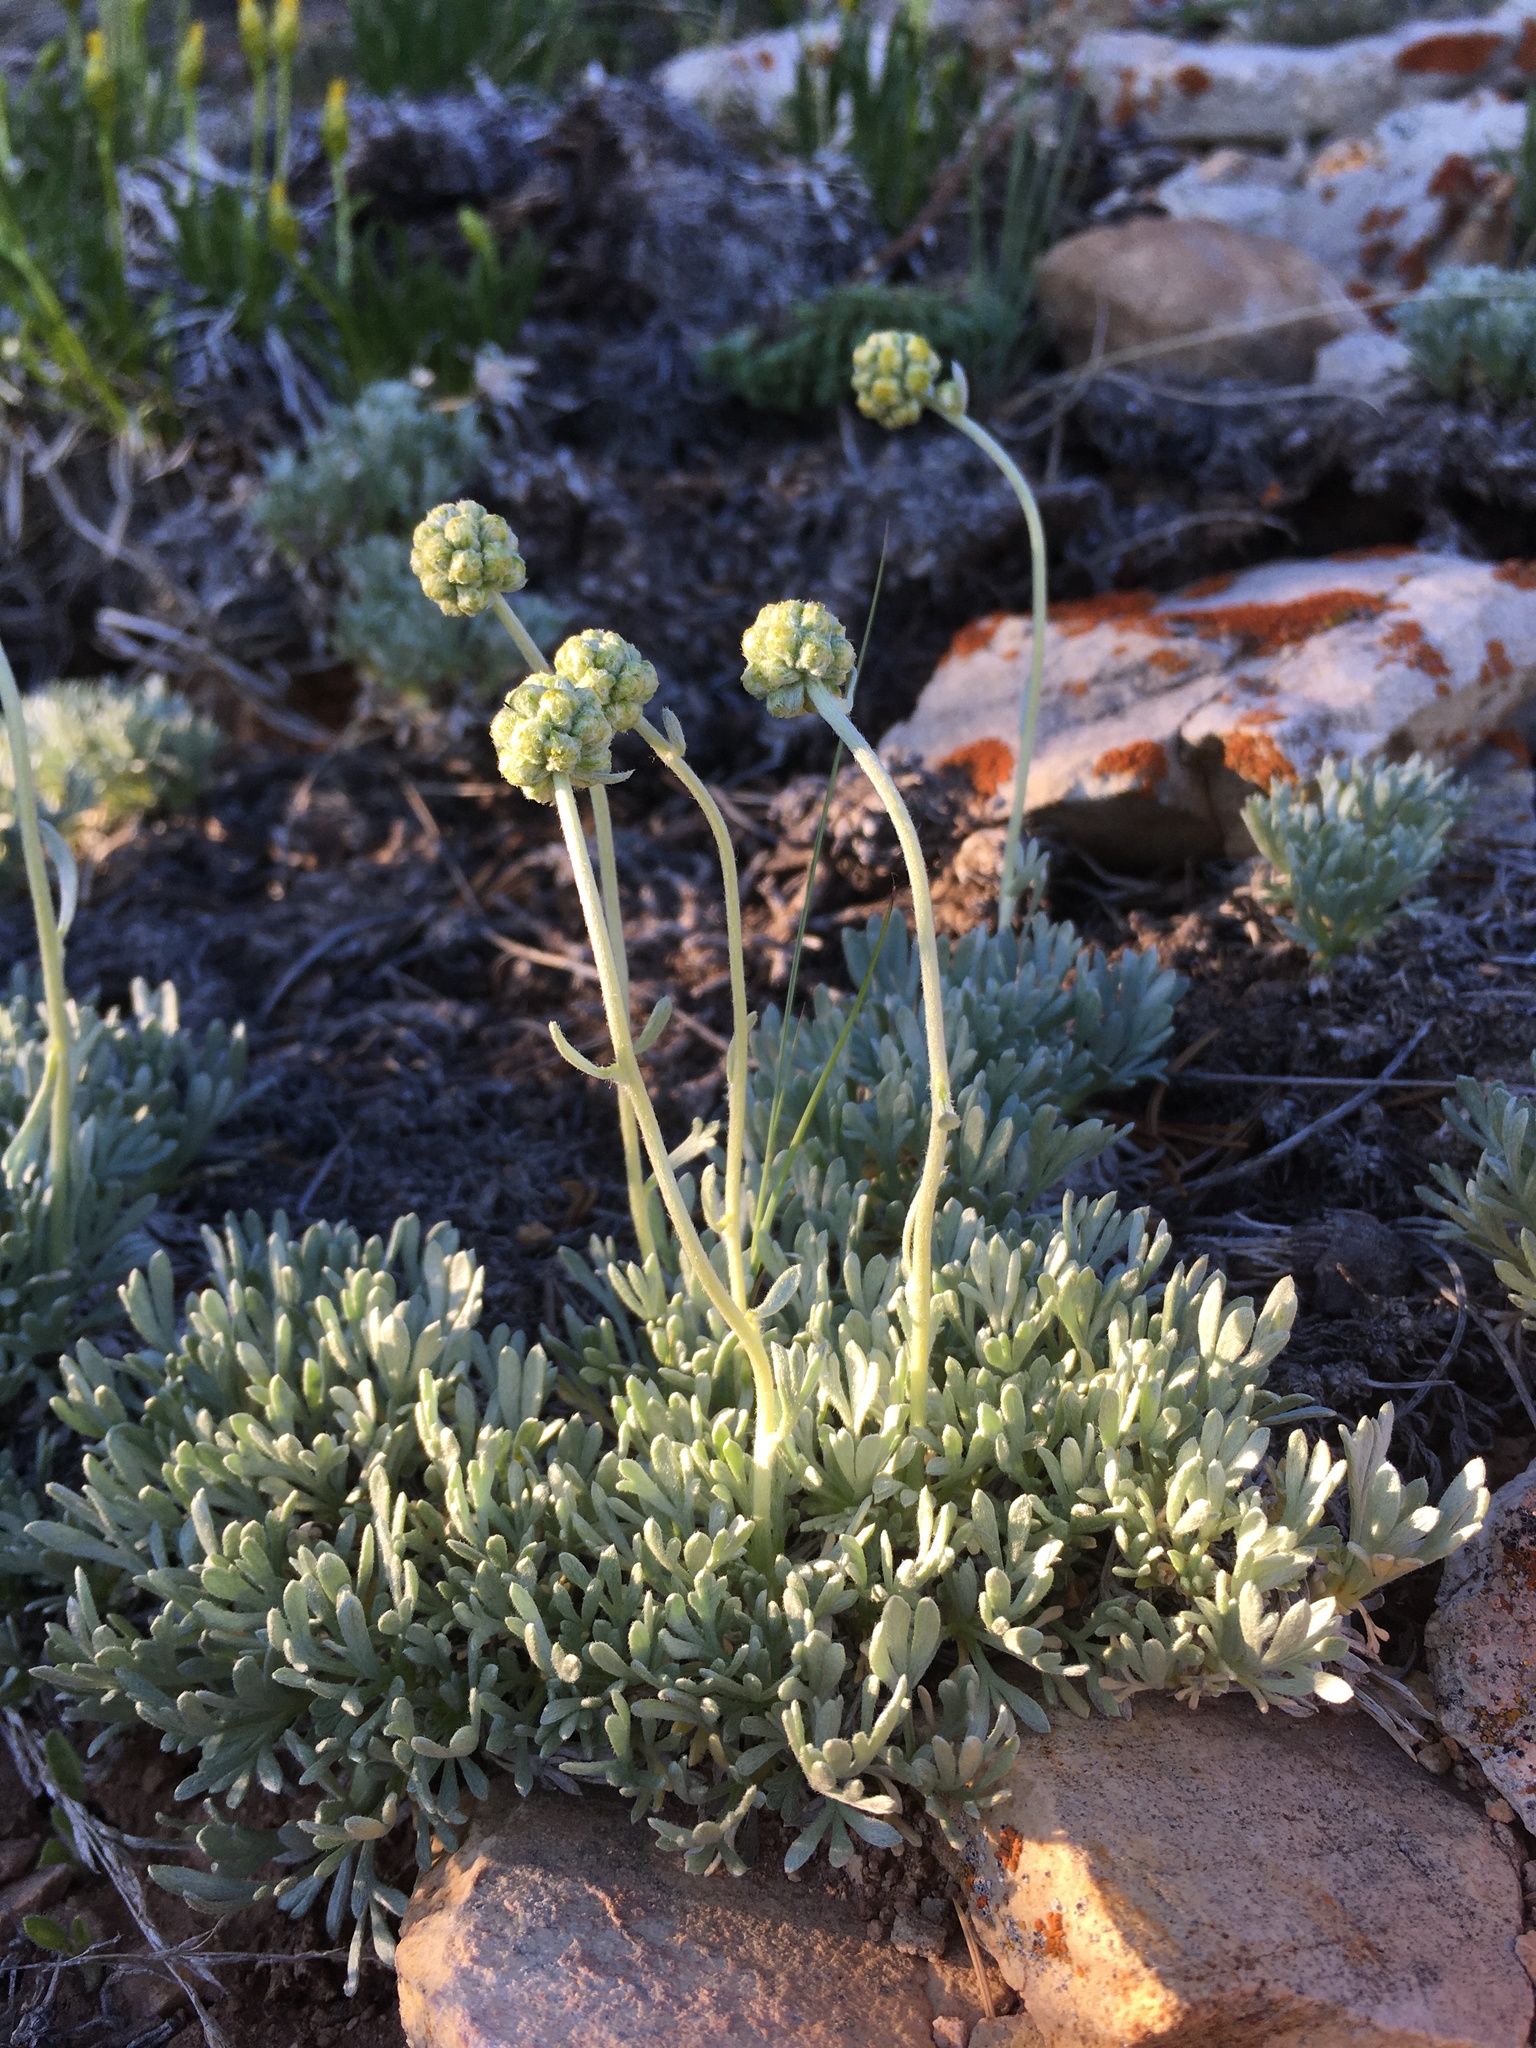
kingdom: Plantae
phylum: Tracheophyta
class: Magnoliopsida
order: Asterales
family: Asteraceae
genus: Artemisia
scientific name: Artemisia capitata
